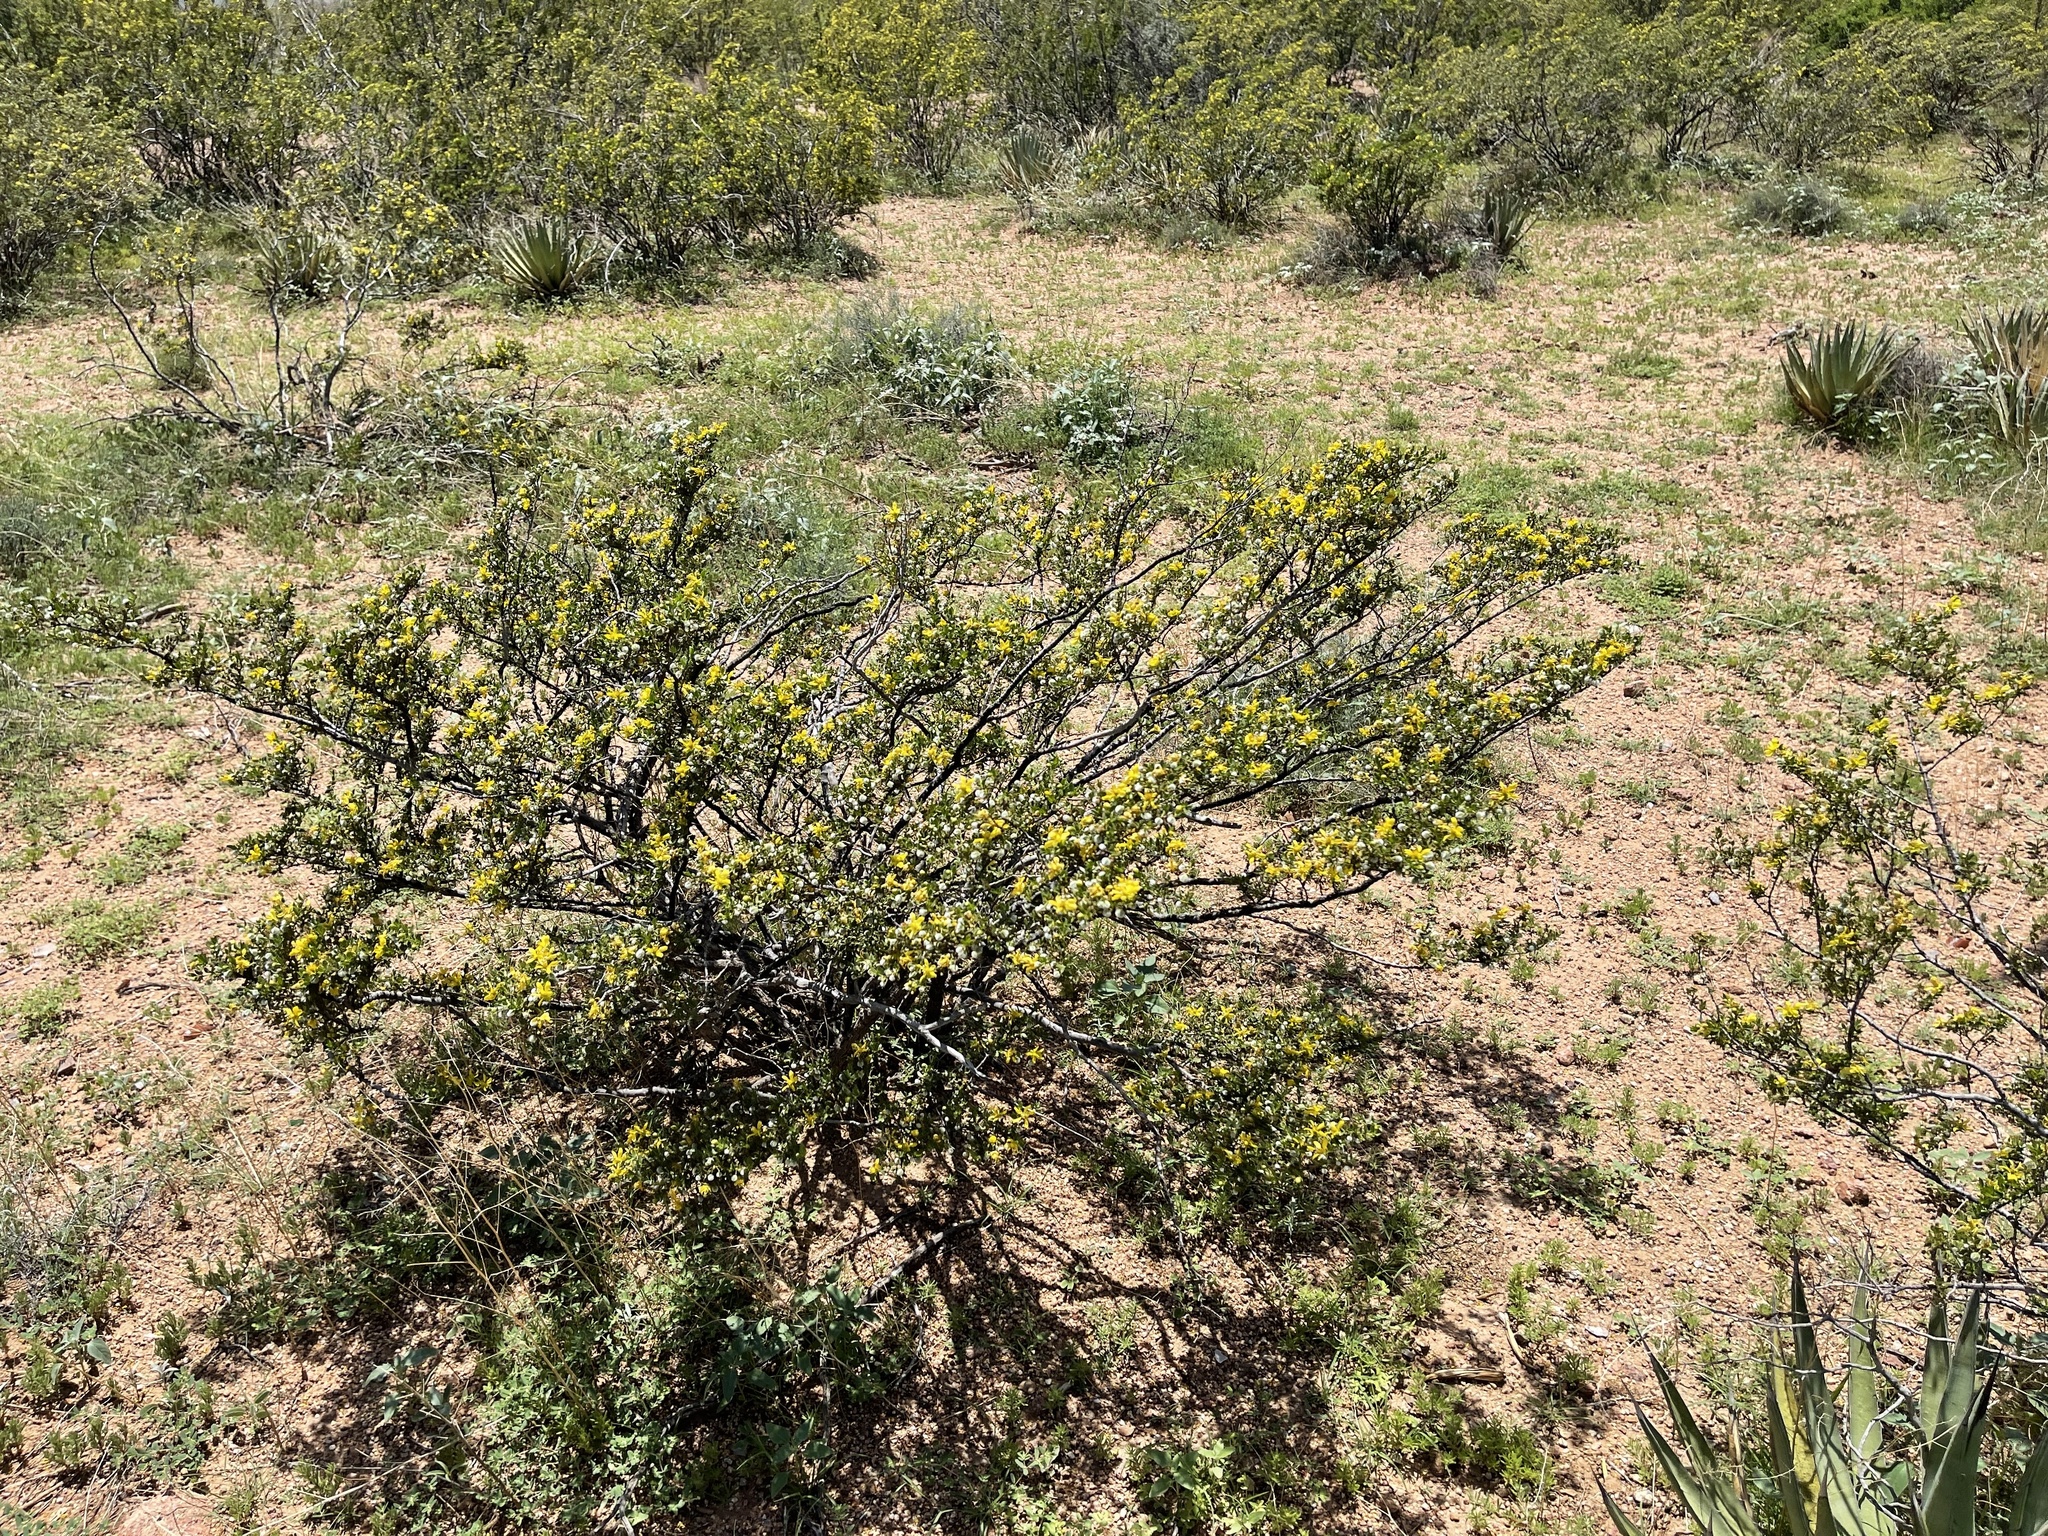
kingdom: Plantae
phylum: Tracheophyta
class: Magnoliopsida
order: Zygophyllales
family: Zygophyllaceae
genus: Larrea
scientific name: Larrea tridentata
